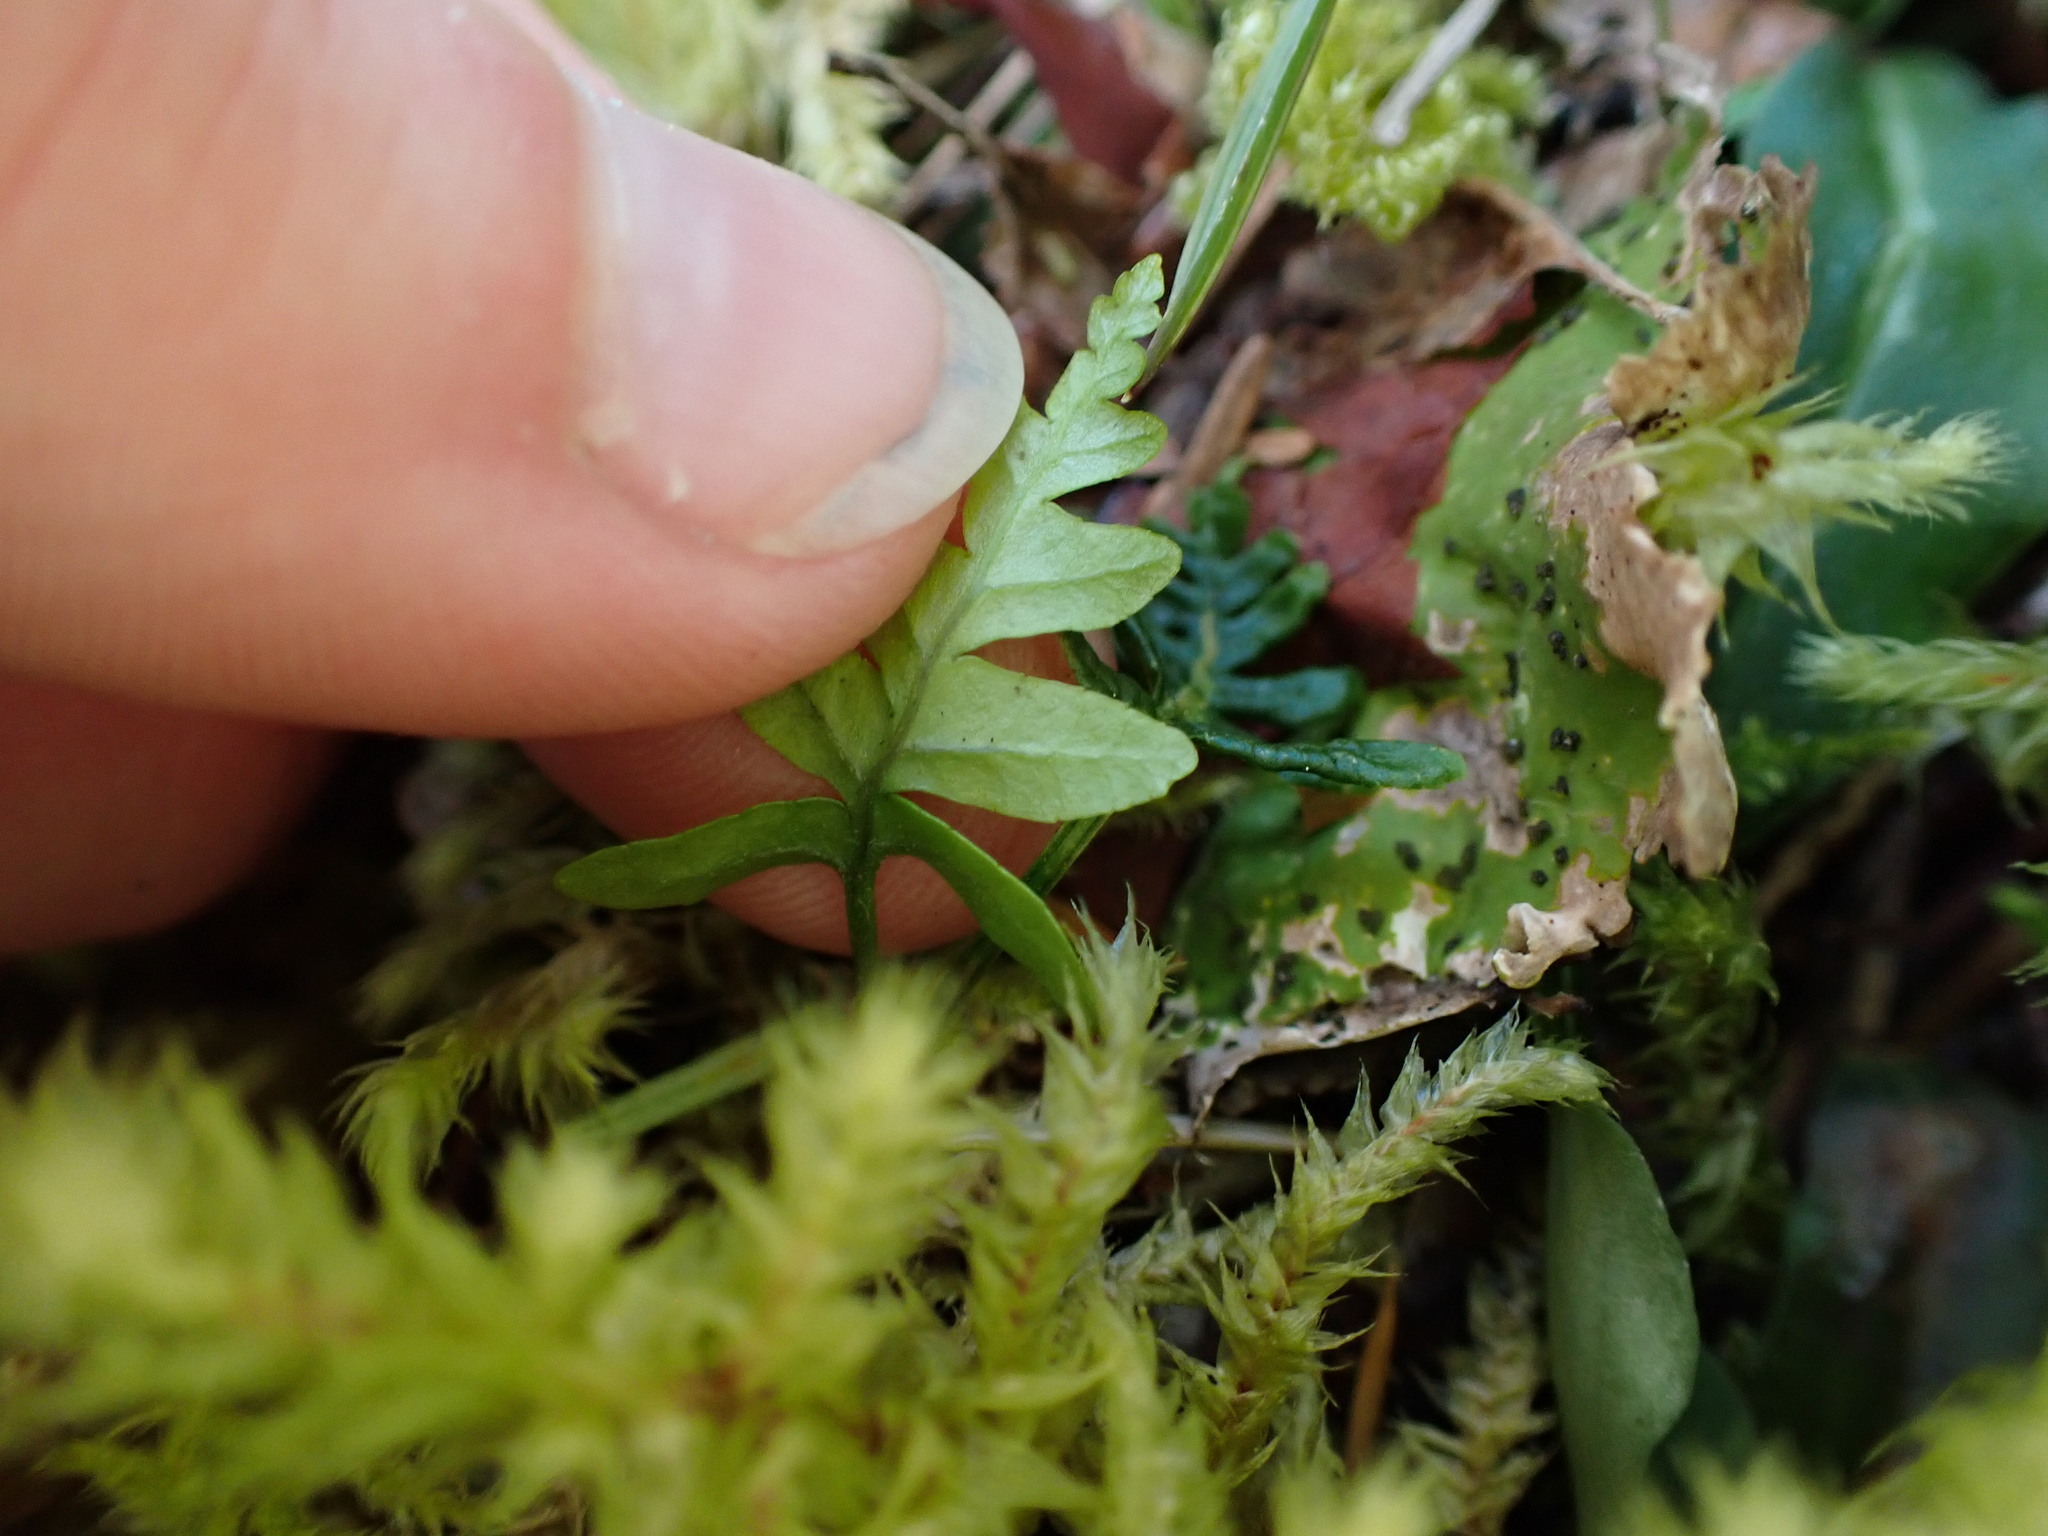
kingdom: Plantae
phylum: Tracheophyta
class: Polypodiopsida
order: Polypodiales
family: Polypodiaceae
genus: Polypodium
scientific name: Polypodium glycyrrhiza
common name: Licorice fern
